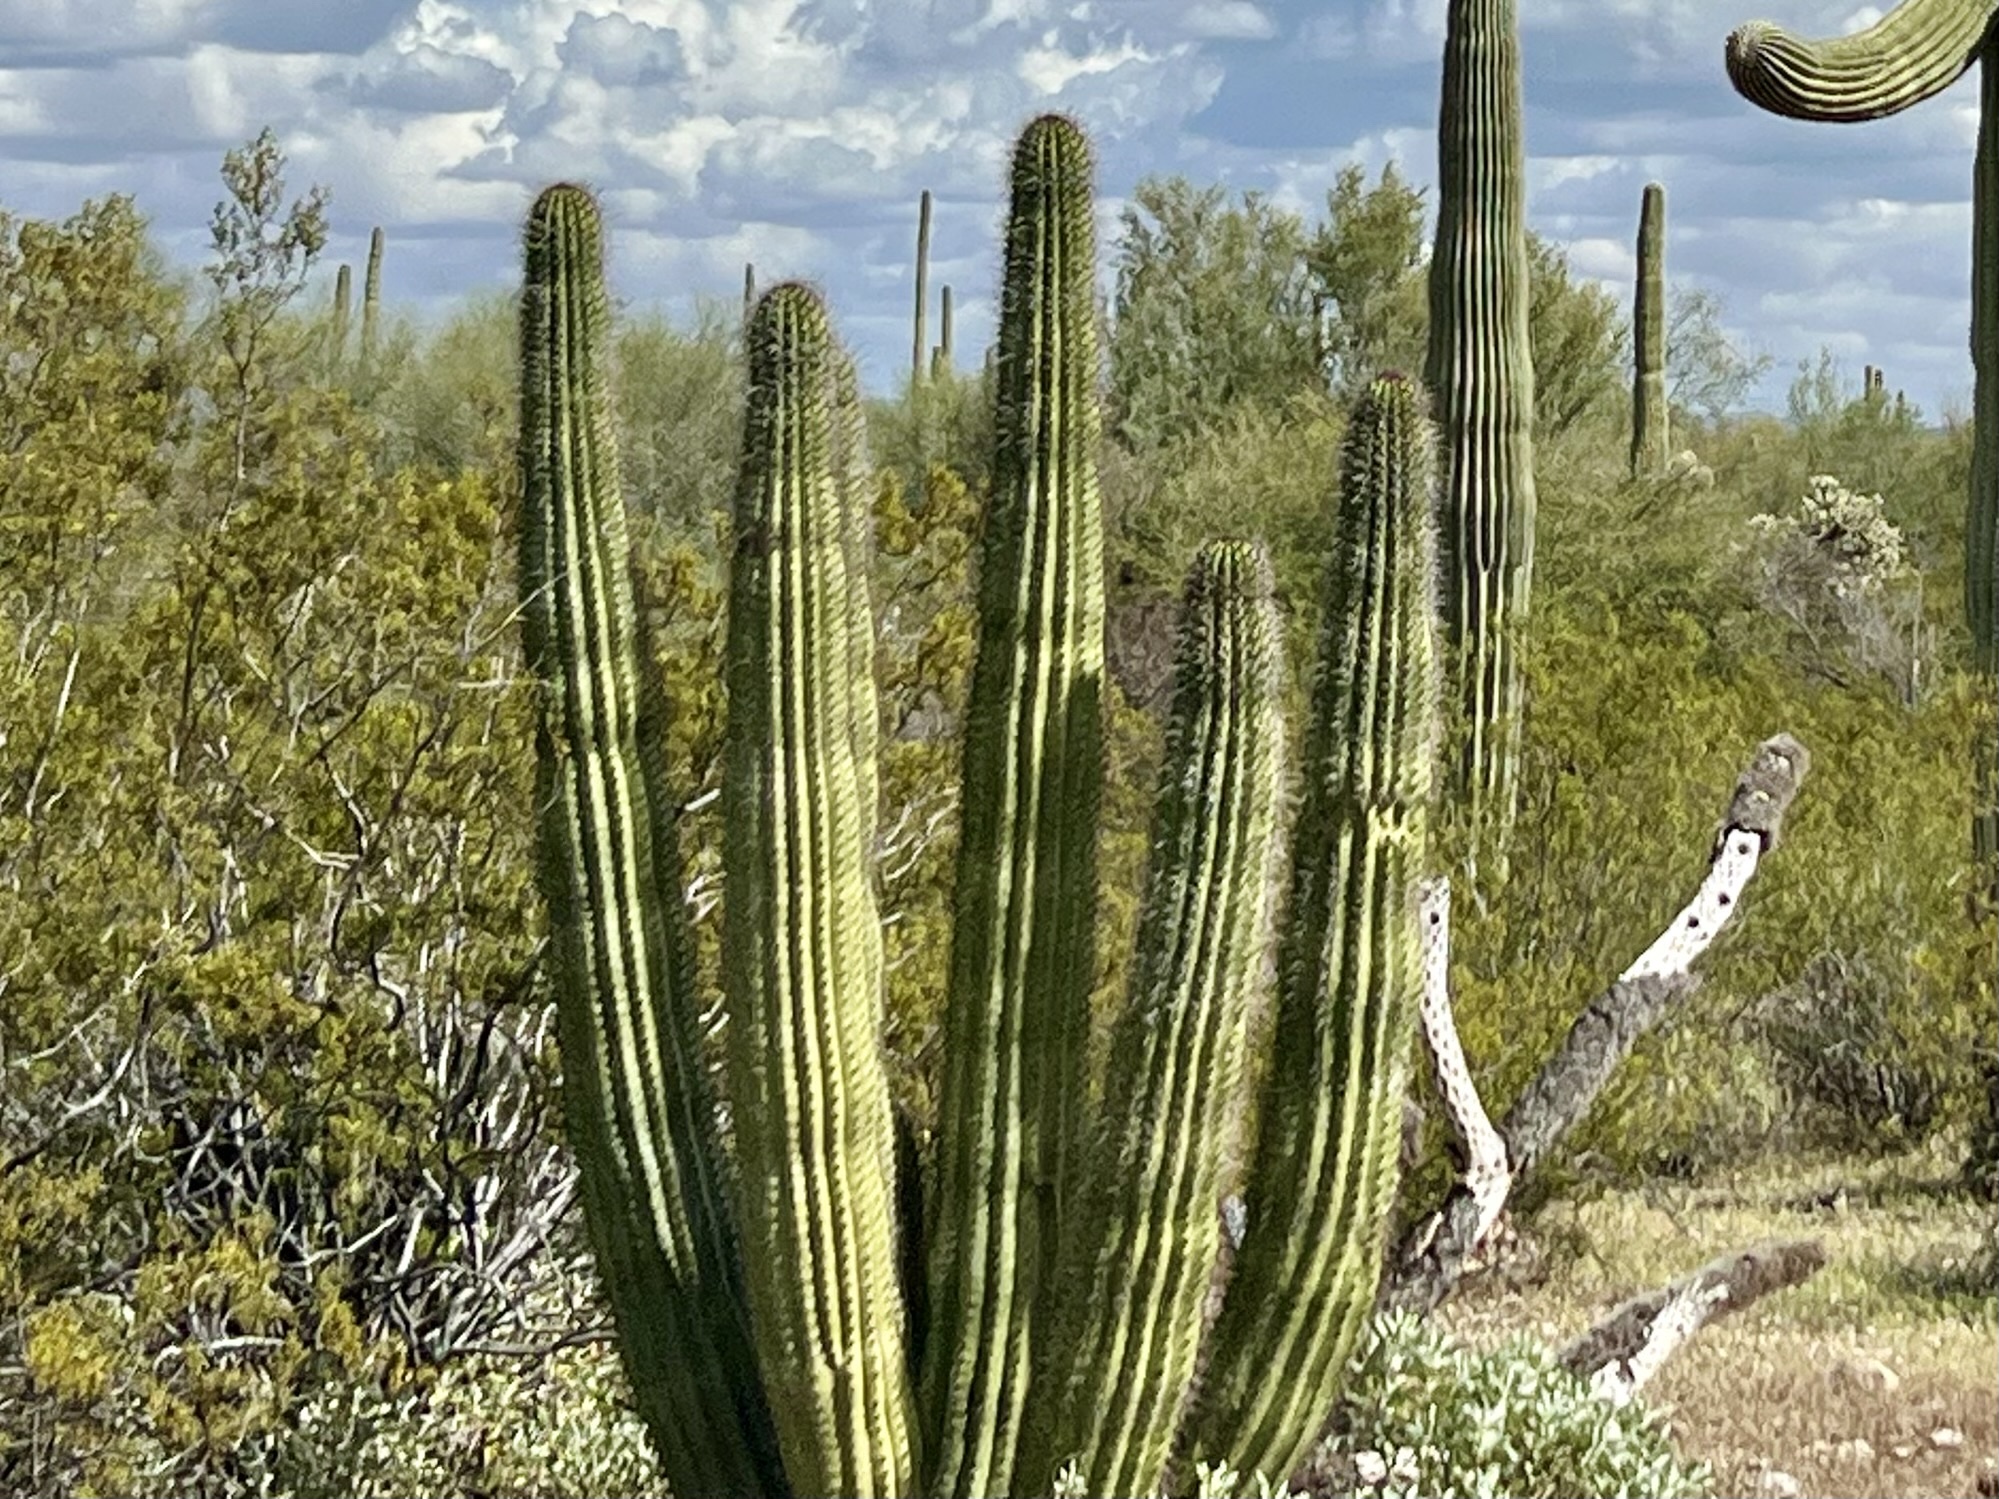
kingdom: Plantae
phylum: Tracheophyta
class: Magnoliopsida
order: Caryophyllales
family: Cactaceae
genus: Stenocereus
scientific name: Stenocereus thurberi
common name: Organ pipe cactus
